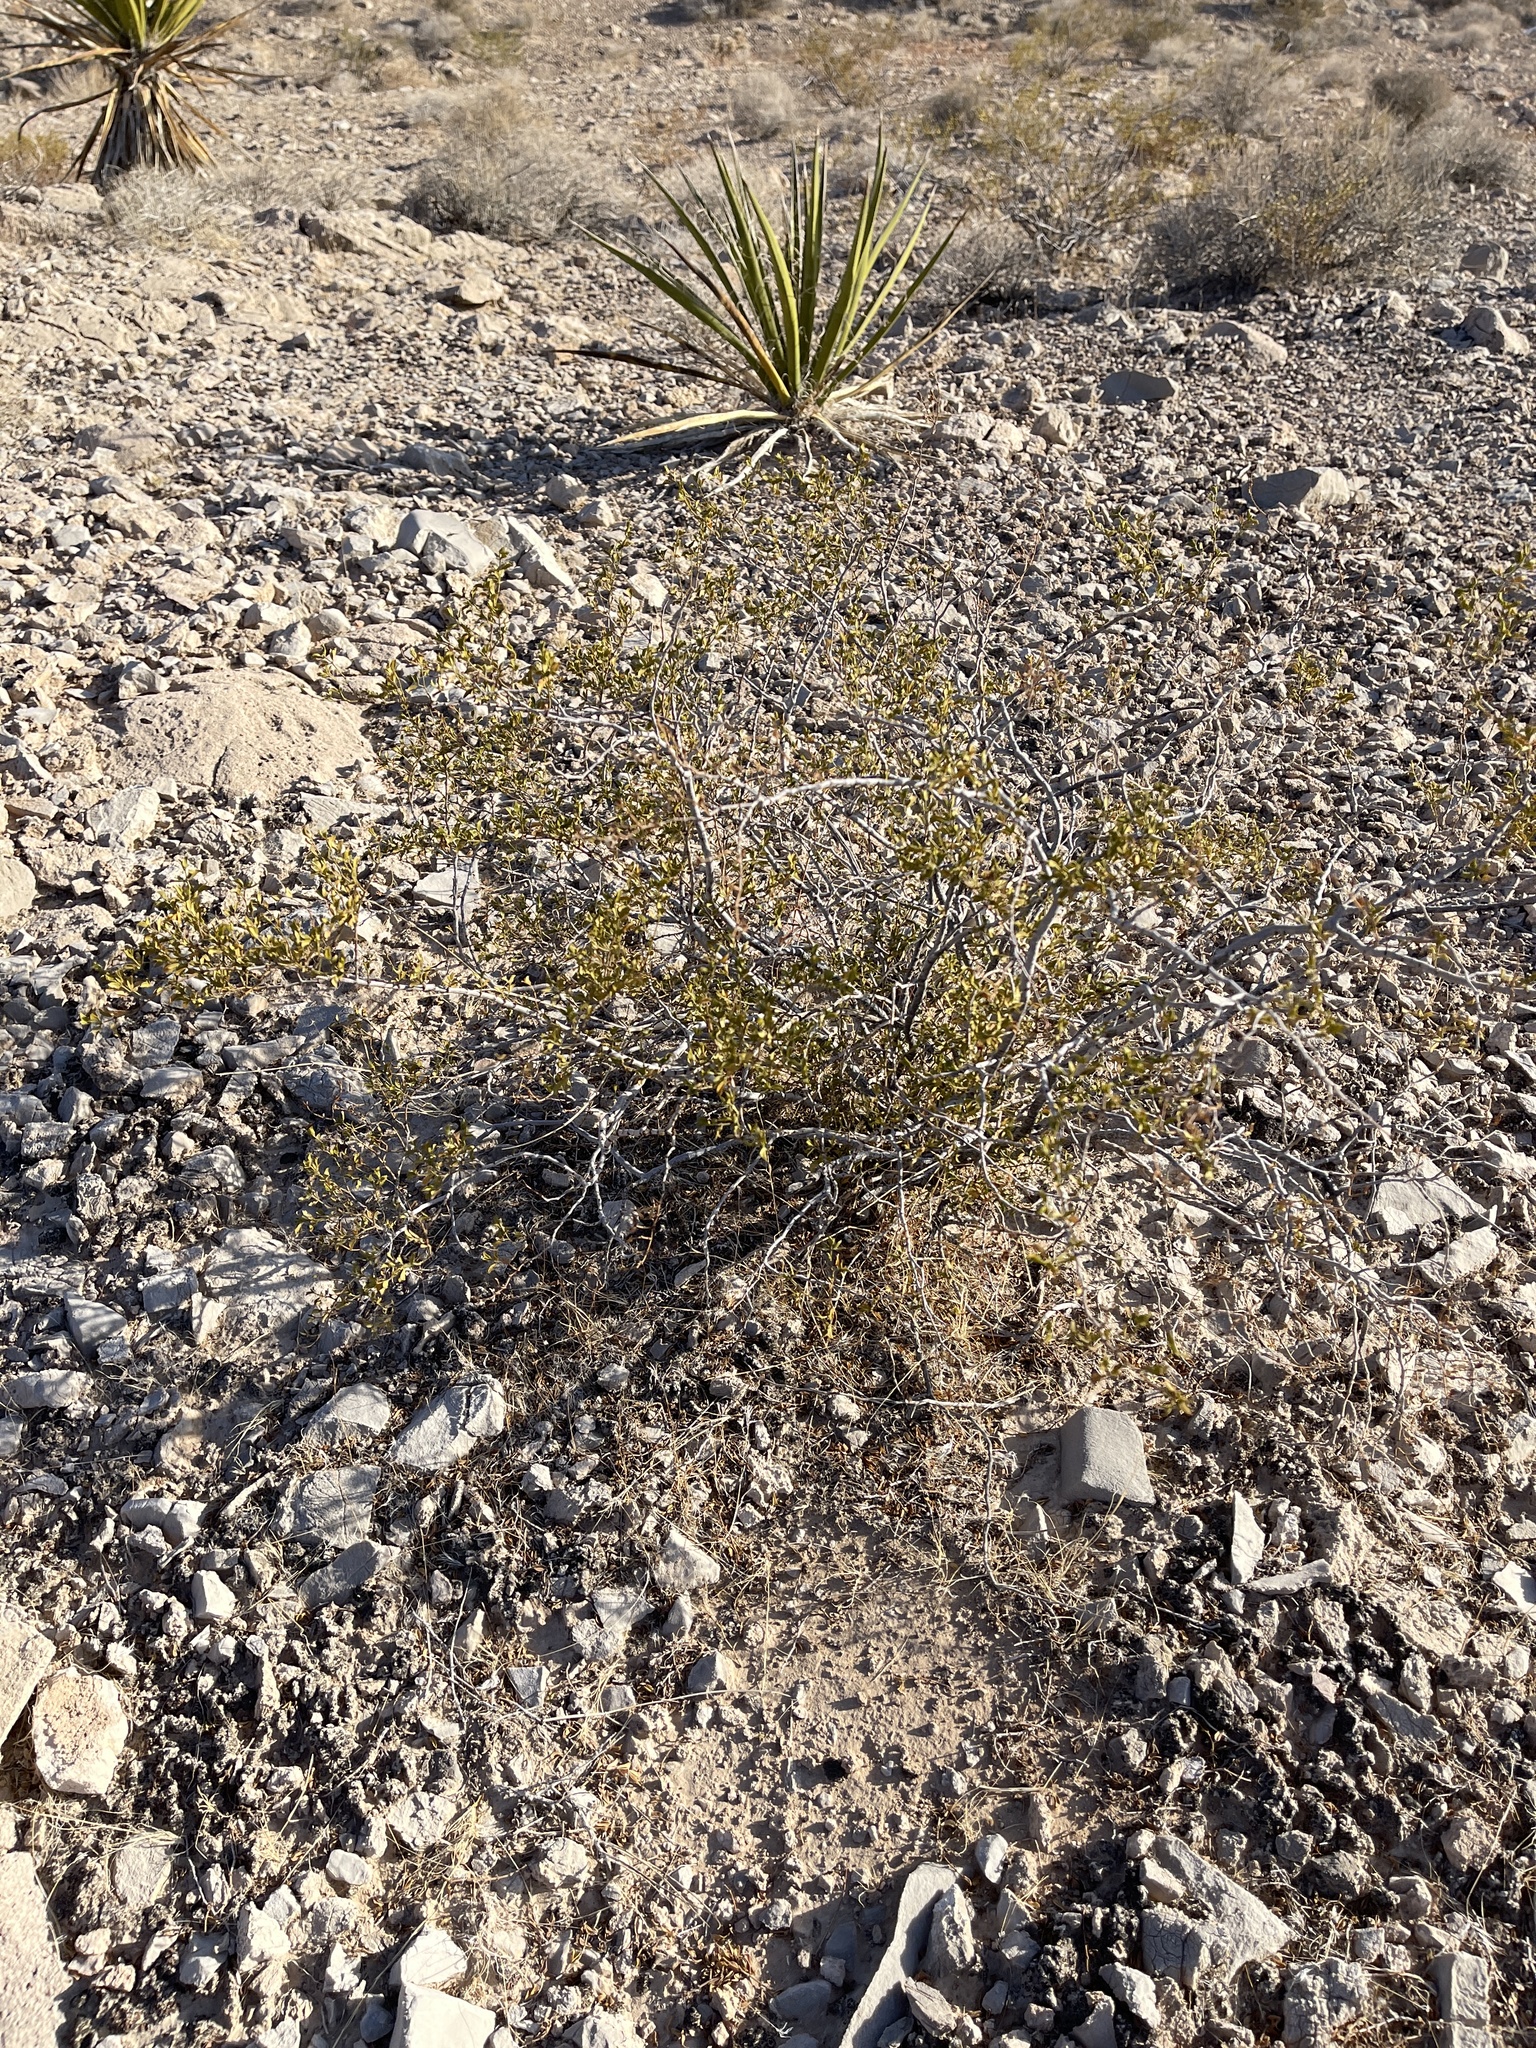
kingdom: Plantae
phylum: Tracheophyta
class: Magnoliopsida
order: Zygophyllales
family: Zygophyllaceae
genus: Larrea
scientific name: Larrea tridentata
